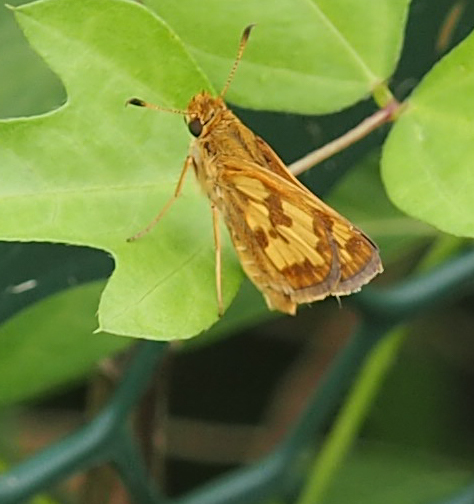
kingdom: Animalia
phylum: Arthropoda
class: Insecta
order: Lepidoptera
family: Hesperiidae
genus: Polites
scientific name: Polites coras
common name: Peck's skipper
